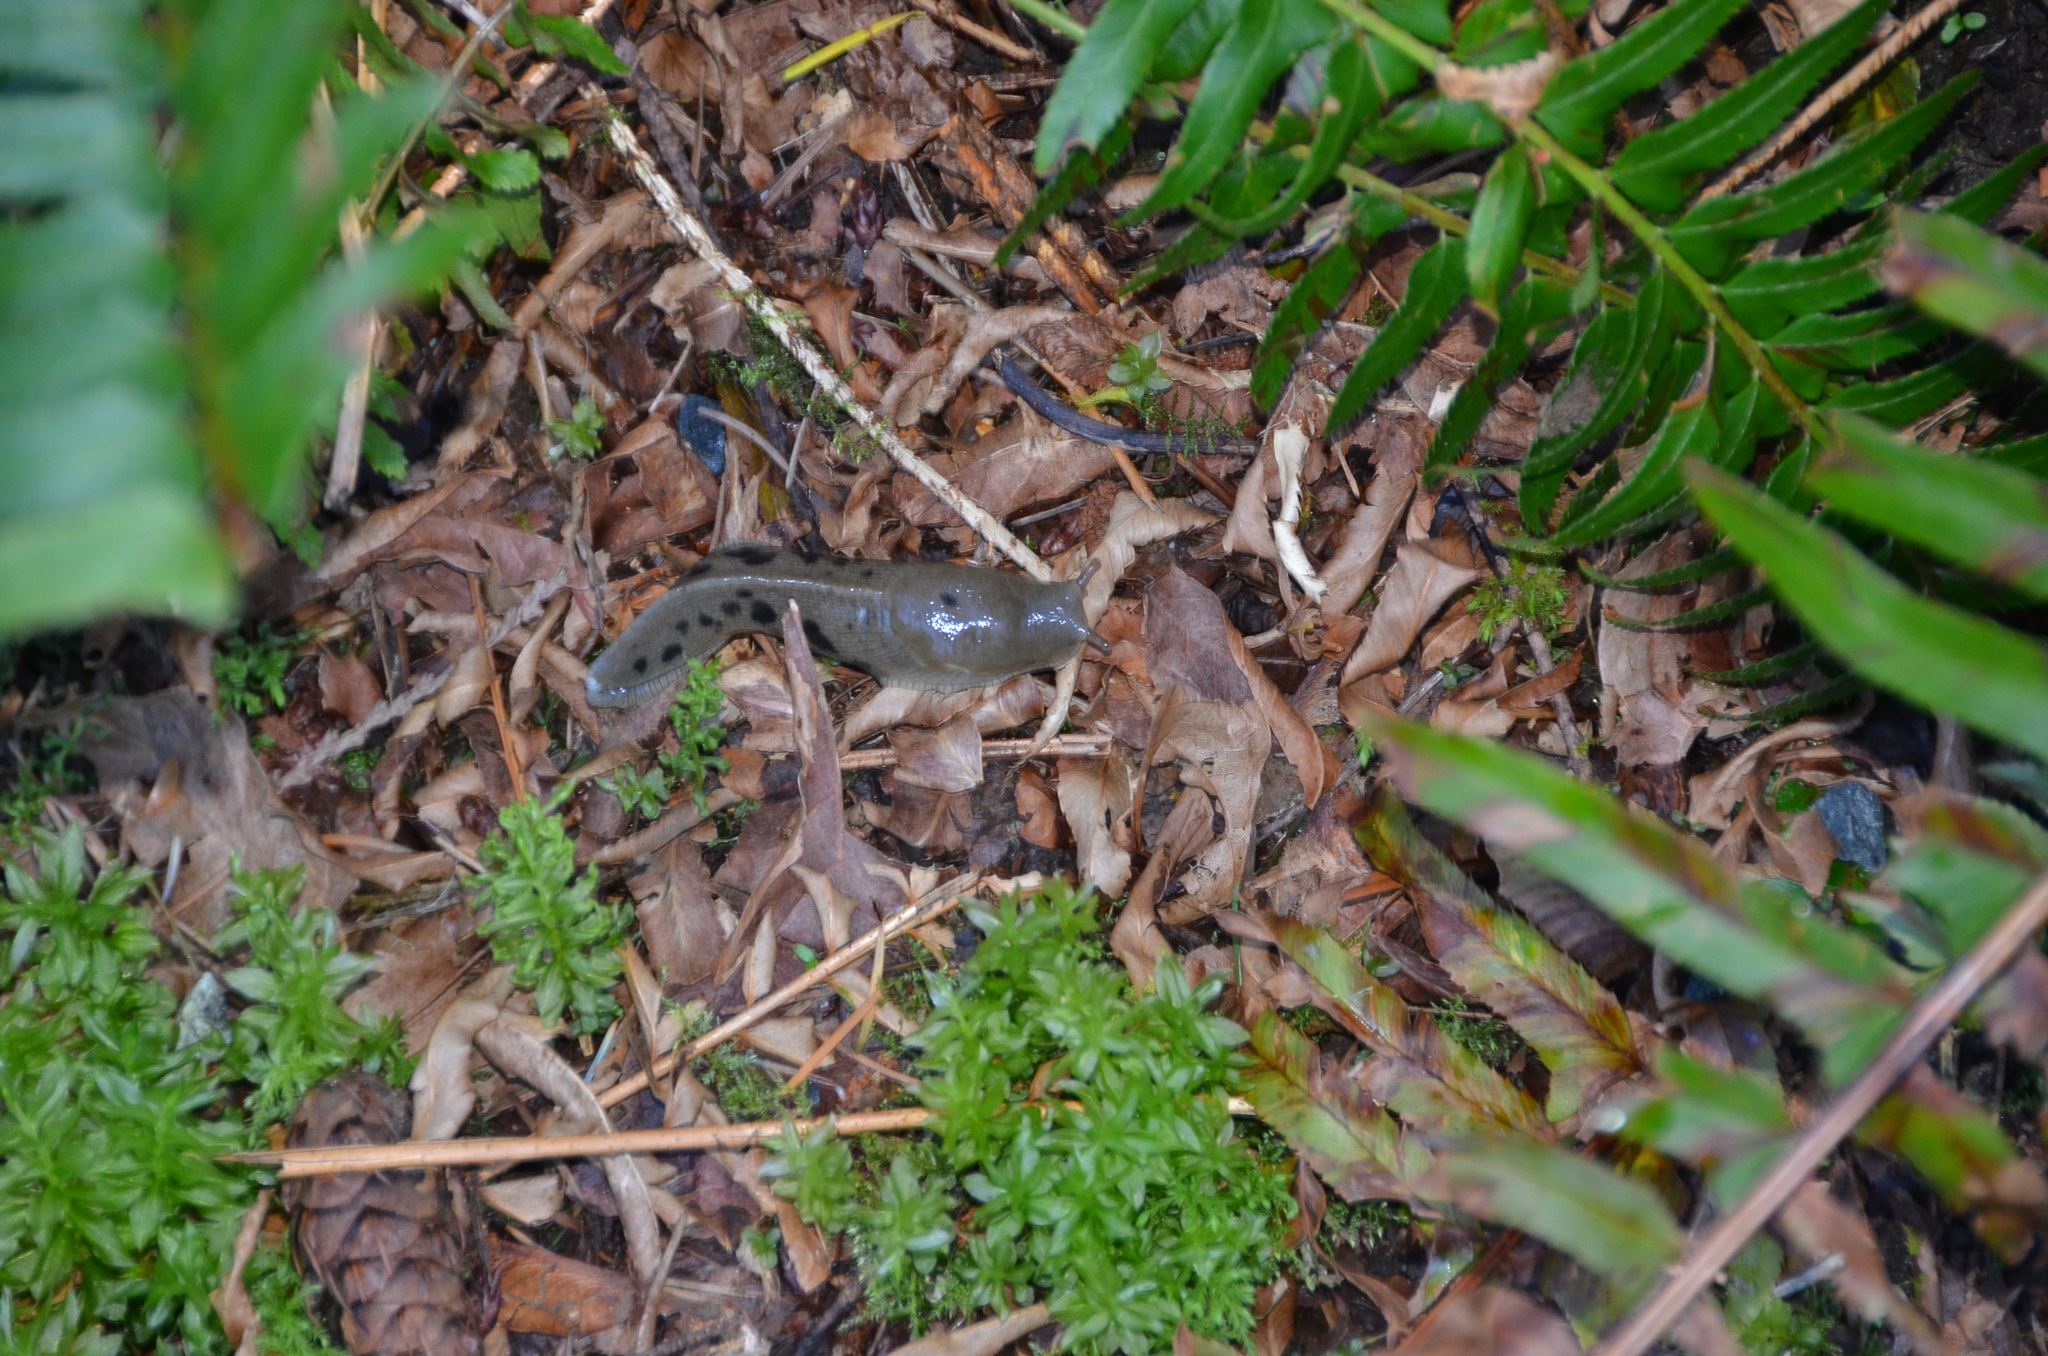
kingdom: Animalia
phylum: Mollusca
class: Gastropoda
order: Stylommatophora
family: Ariolimacidae
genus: Ariolimax
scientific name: Ariolimax columbianus
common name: Pacific banana slug
